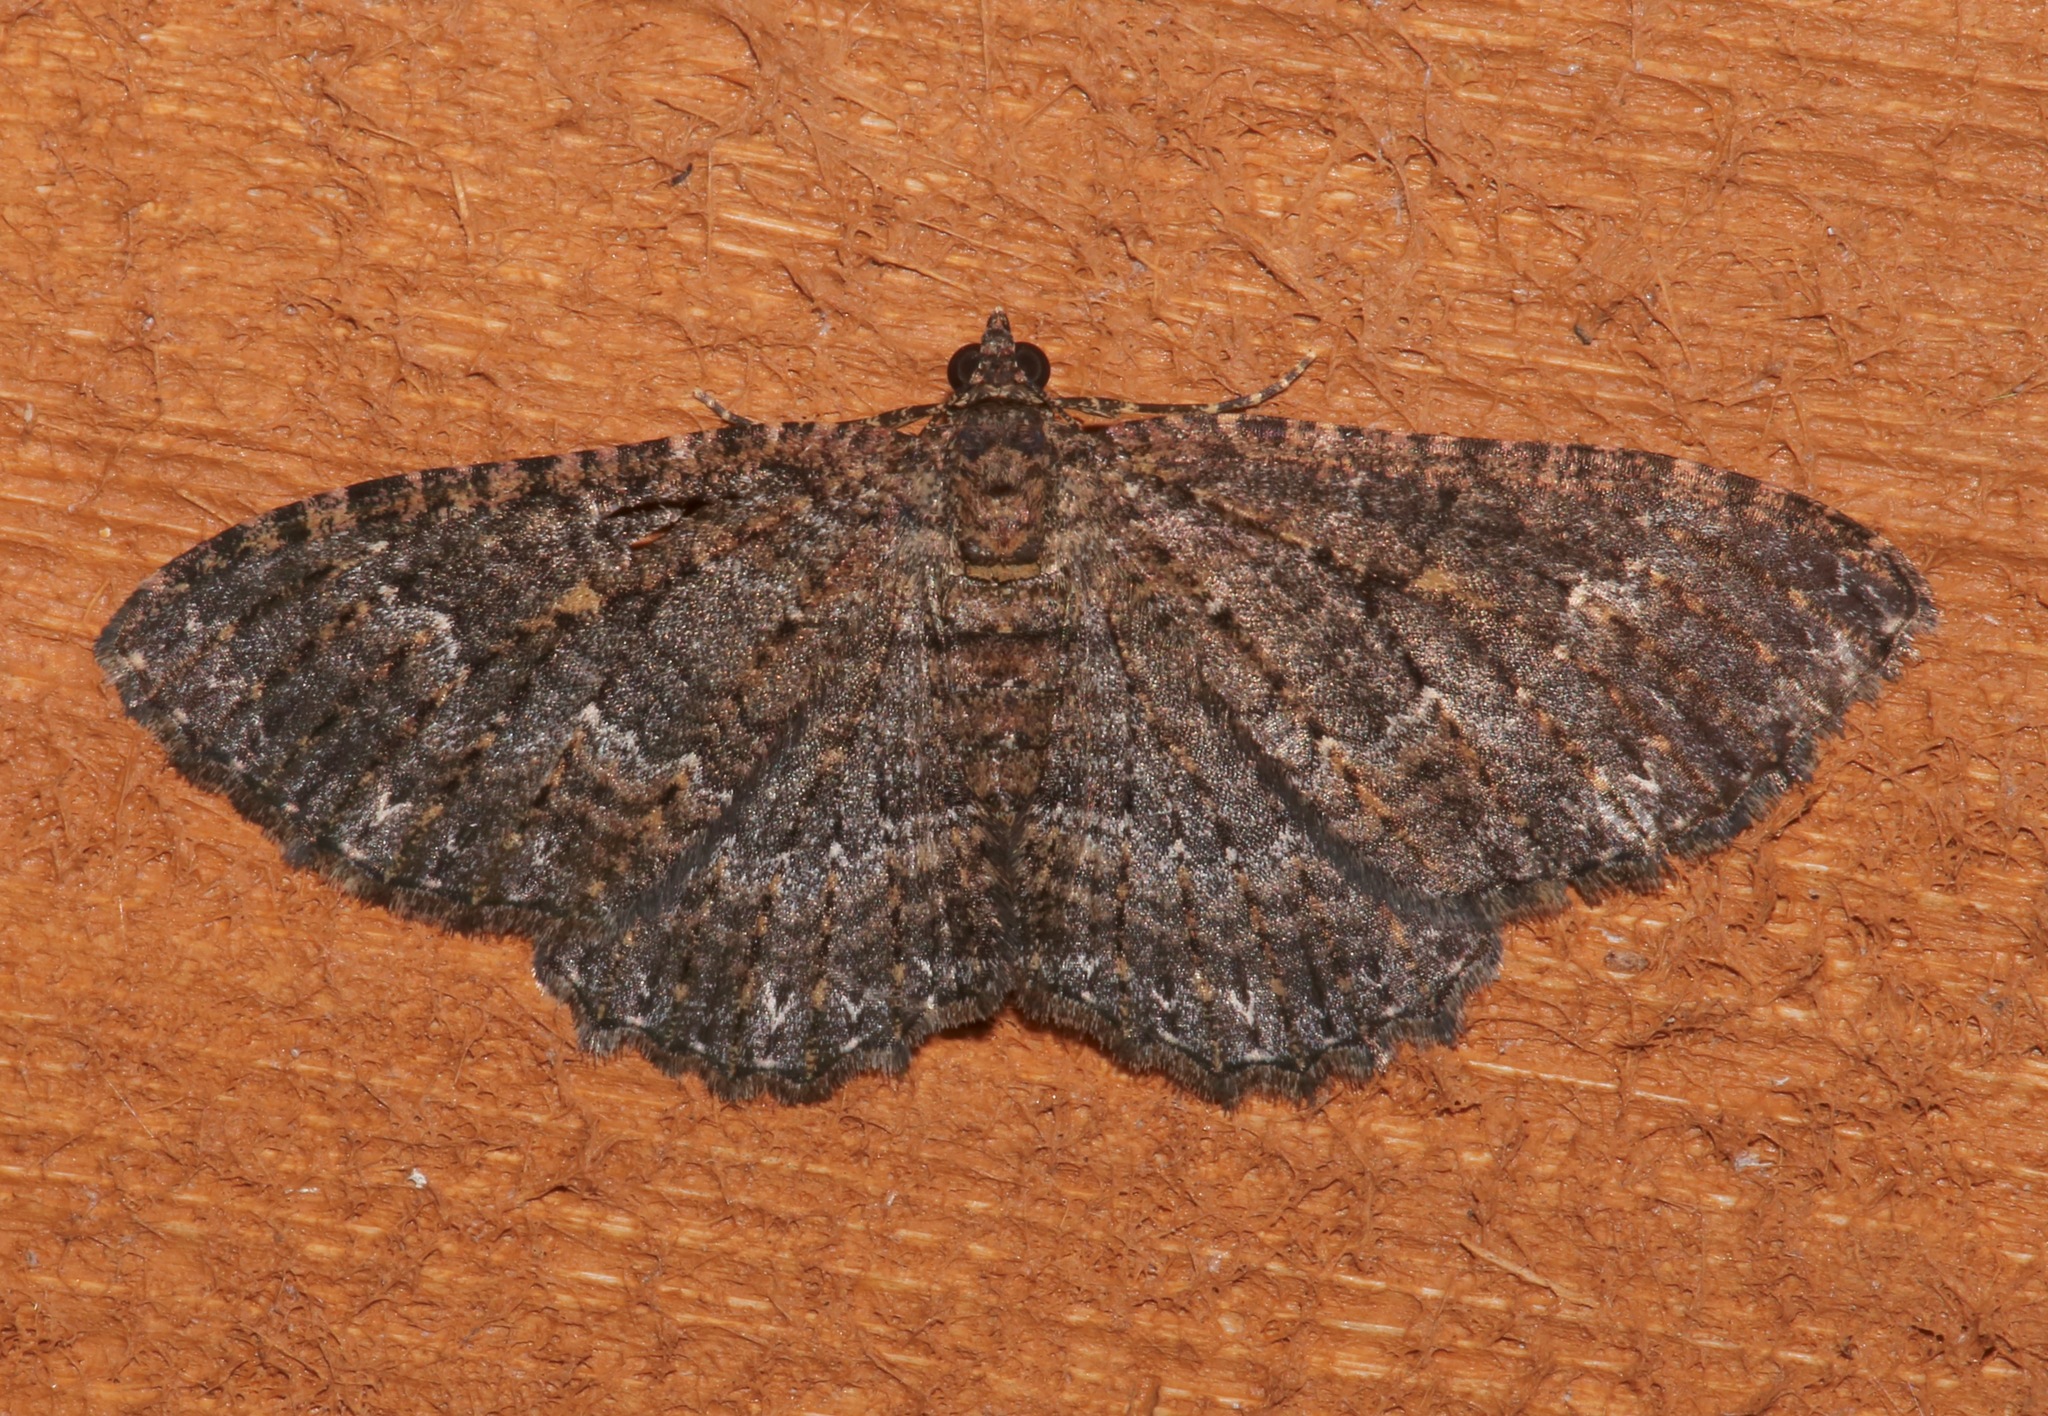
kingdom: Animalia
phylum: Arthropoda
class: Insecta
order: Lepidoptera
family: Geometridae
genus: Disclisioprocta
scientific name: Disclisioprocta stellata
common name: Somber carpet
